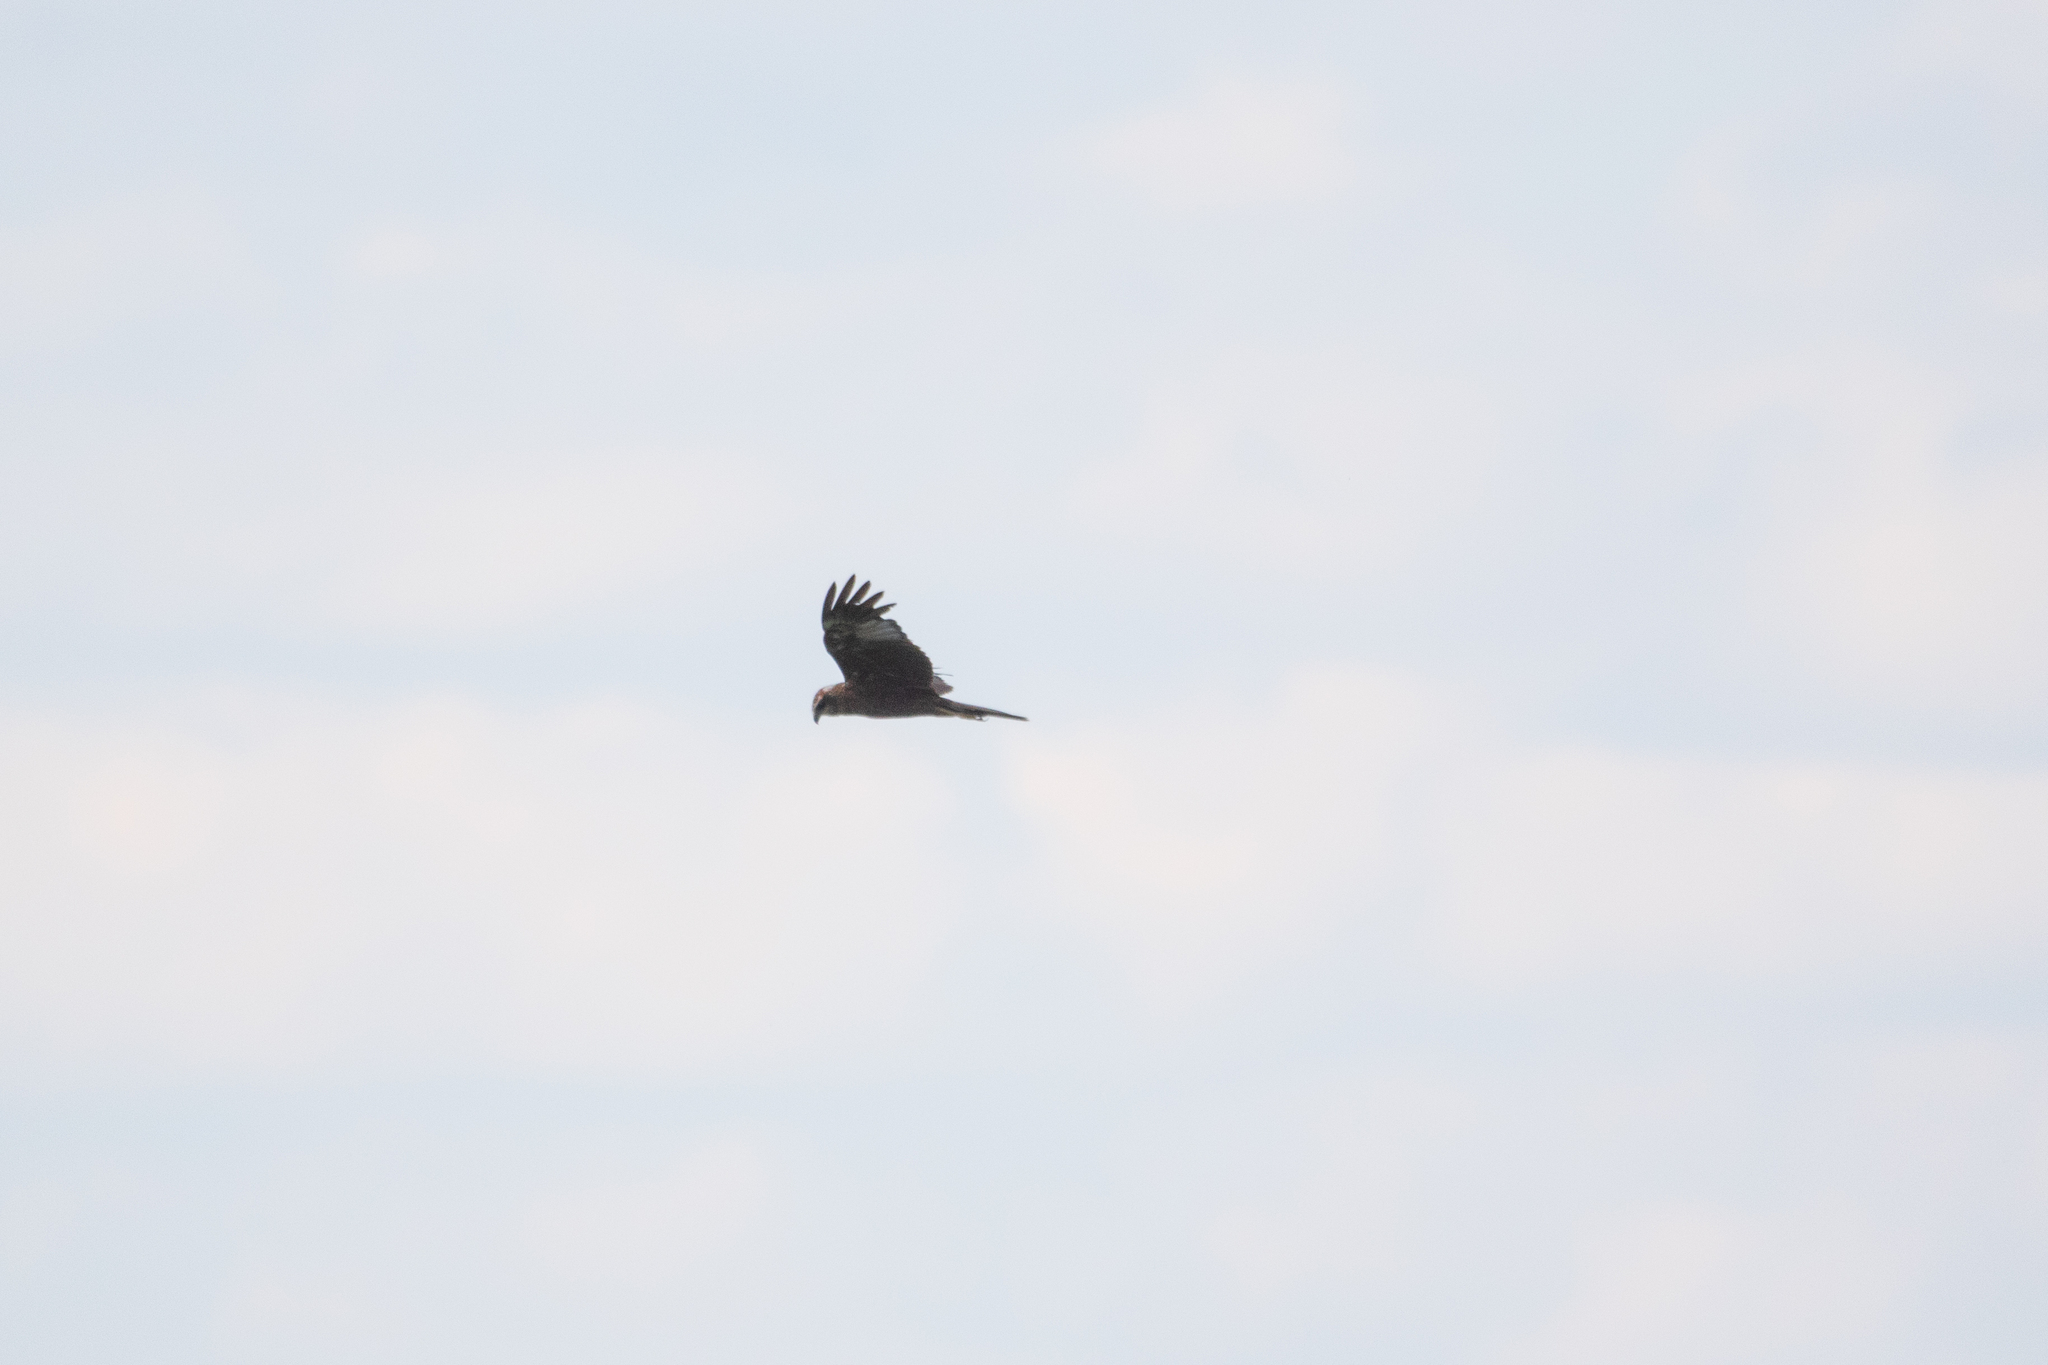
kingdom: Animalia
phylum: Chordata
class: Aves
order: Accipitriformes
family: Accipitridae
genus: Circus
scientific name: Circus aeruginosus
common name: Western marsh harrier
